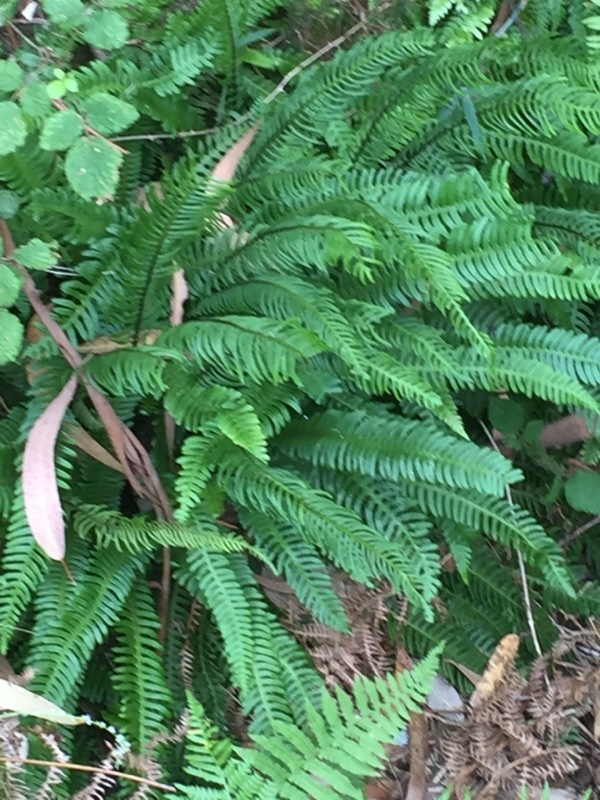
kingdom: Plantae
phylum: Tracheophyta
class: Polypodiopsida
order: Polypodiales
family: Blechnaceae
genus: Struthiopteris
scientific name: Struthiopteris spicant
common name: Deer fern
